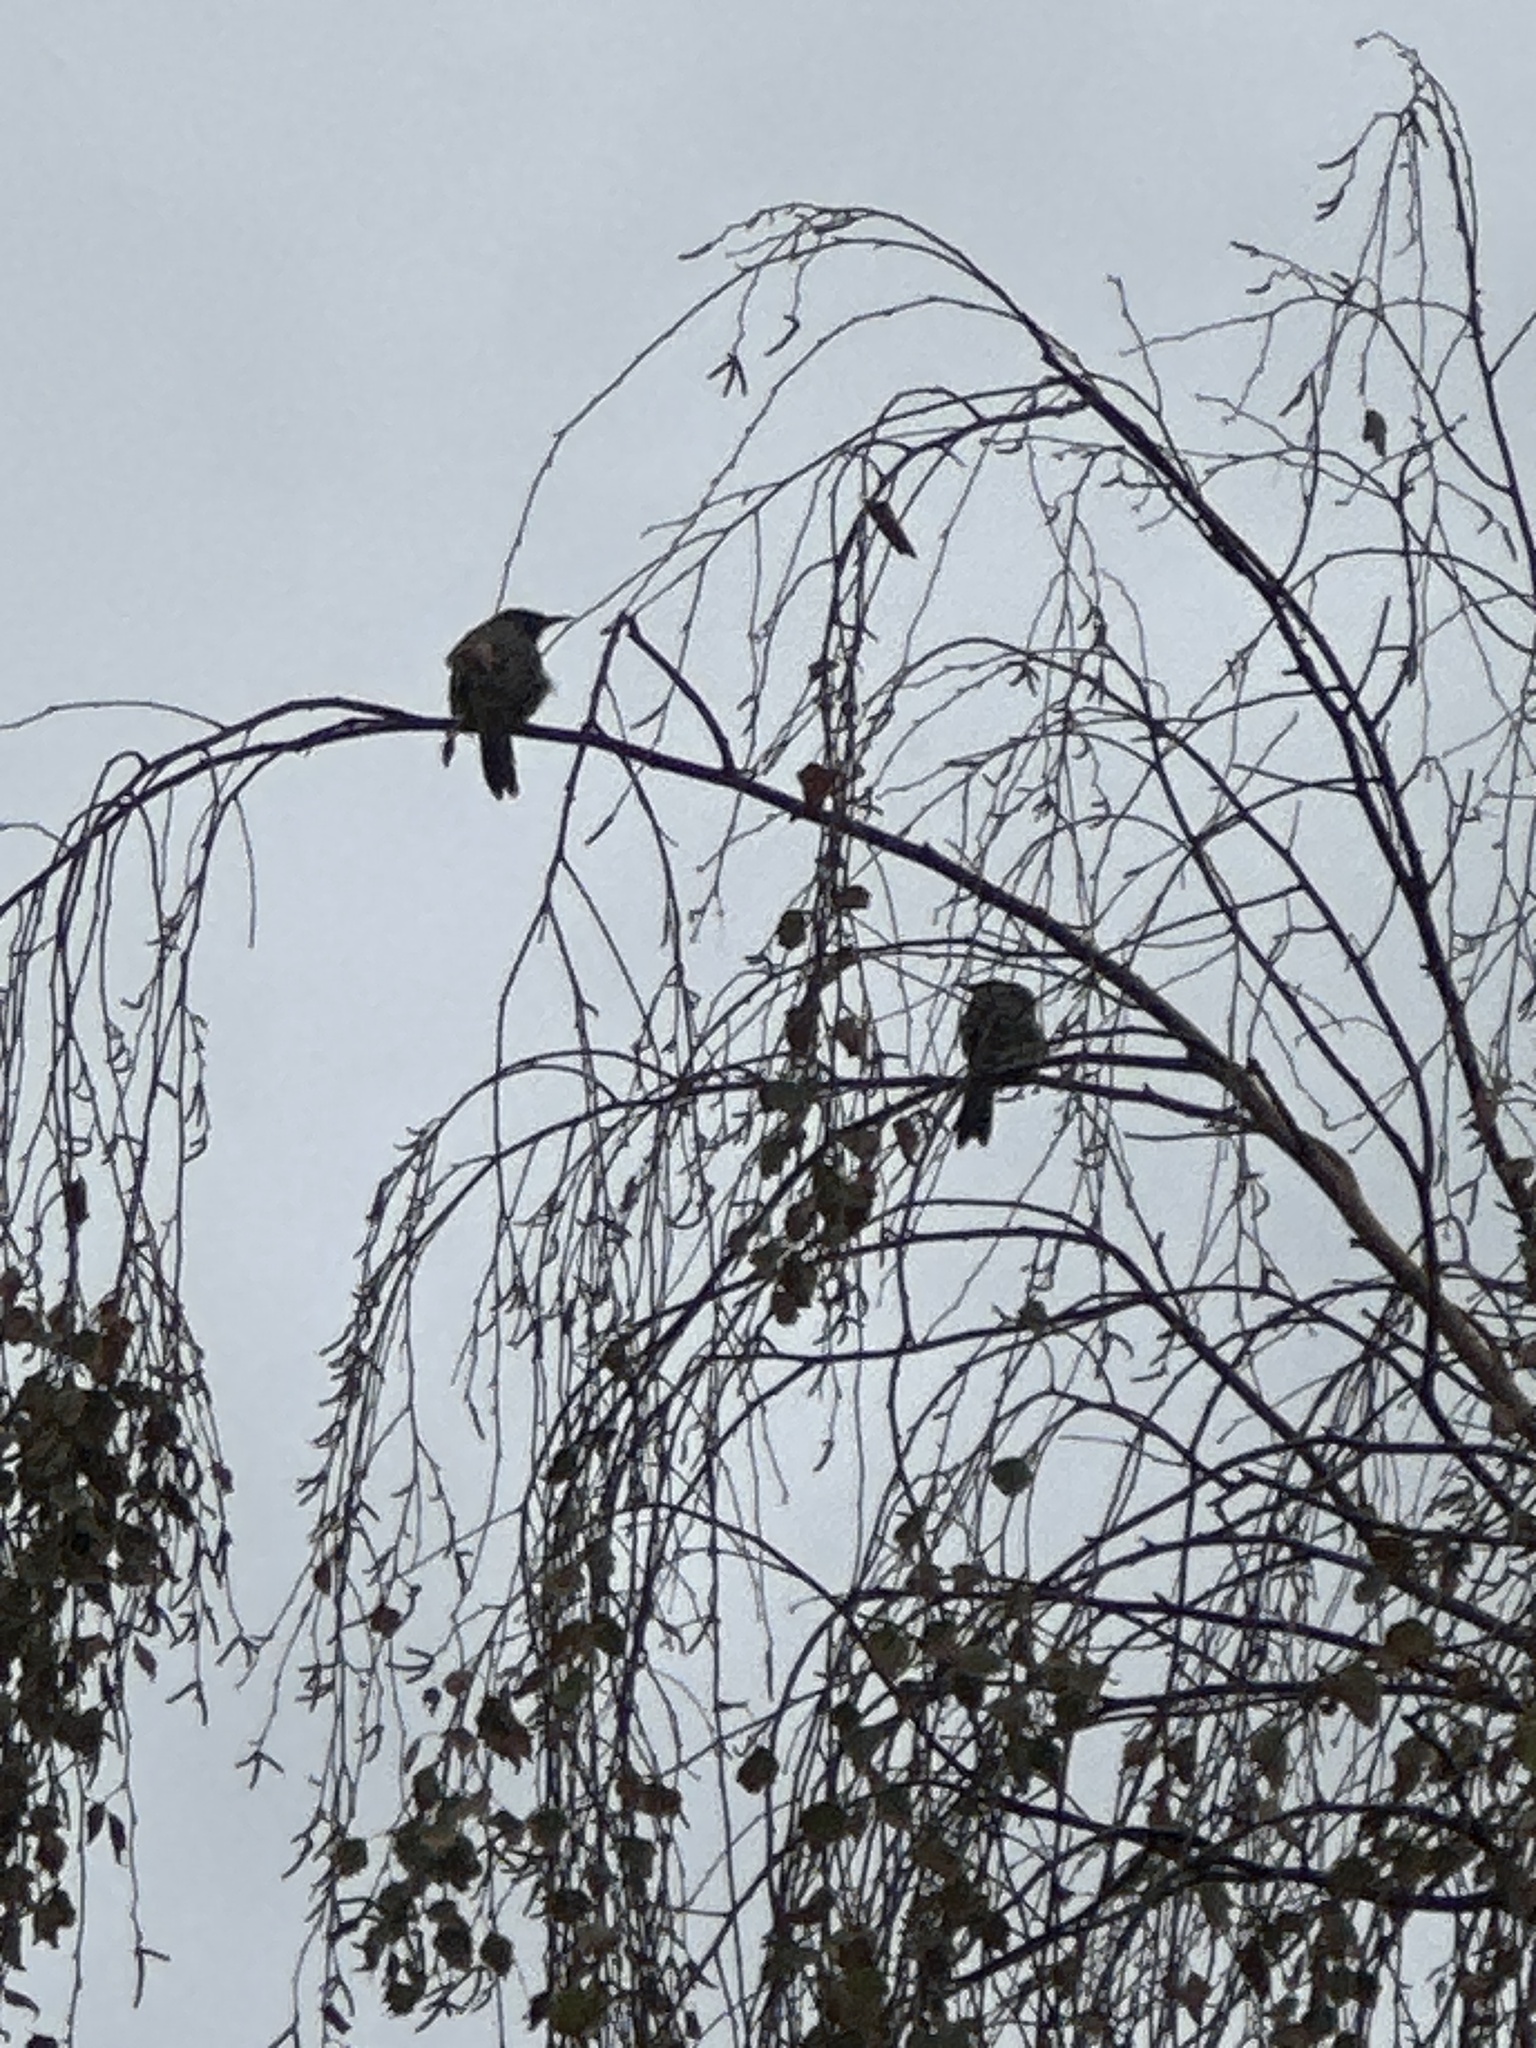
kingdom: Animalia
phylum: Chordata
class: Aves
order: Passeriformes
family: Meliphagidae
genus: Anthochaera
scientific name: Anthochaera chrysoptera
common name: Little wattlebird
